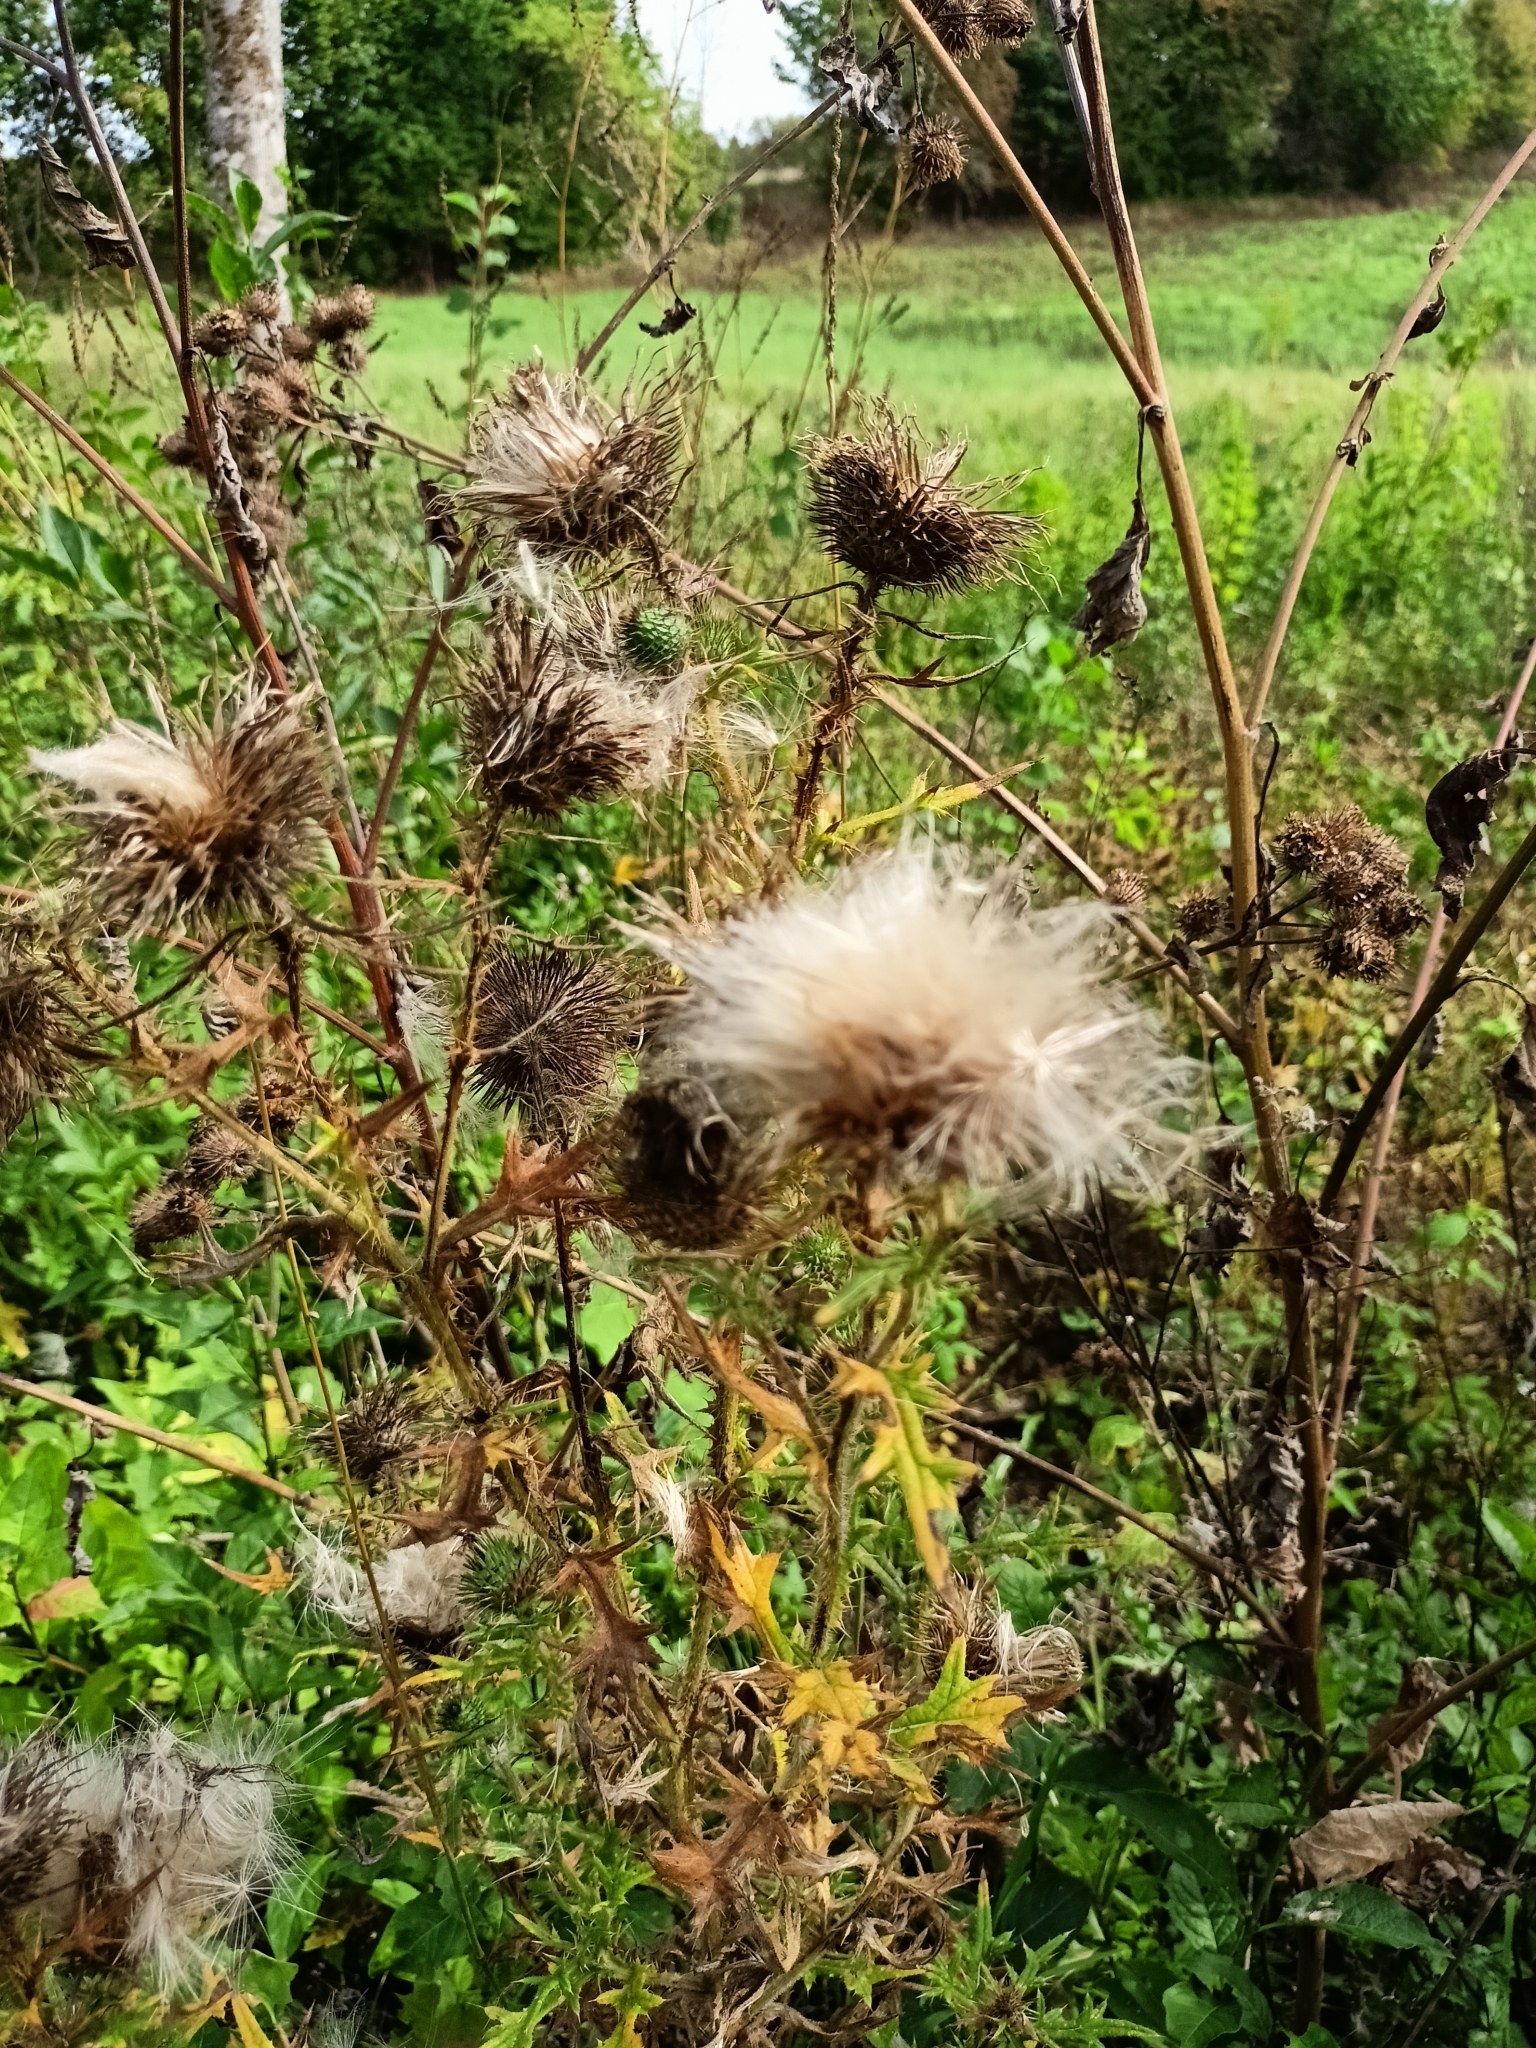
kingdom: Plantae
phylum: Tracheophyta
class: Magnoliopsida
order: Asterales
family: Asteraceae
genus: Cirsium
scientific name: Cirsium vulgare
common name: Bull thistle
